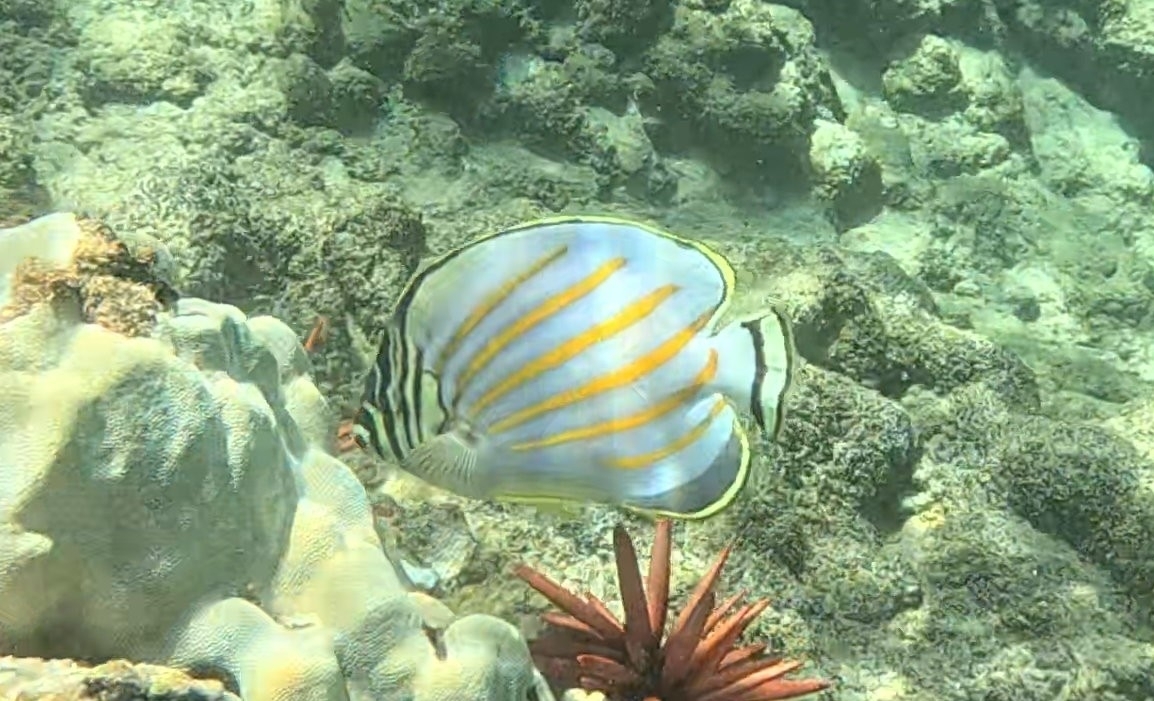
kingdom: Animalia
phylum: Chordata
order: Perciformes
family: Chaetodontidae
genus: Chaetodon
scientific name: Chaetodon ornatissimus
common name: Ornate butterflyfish
